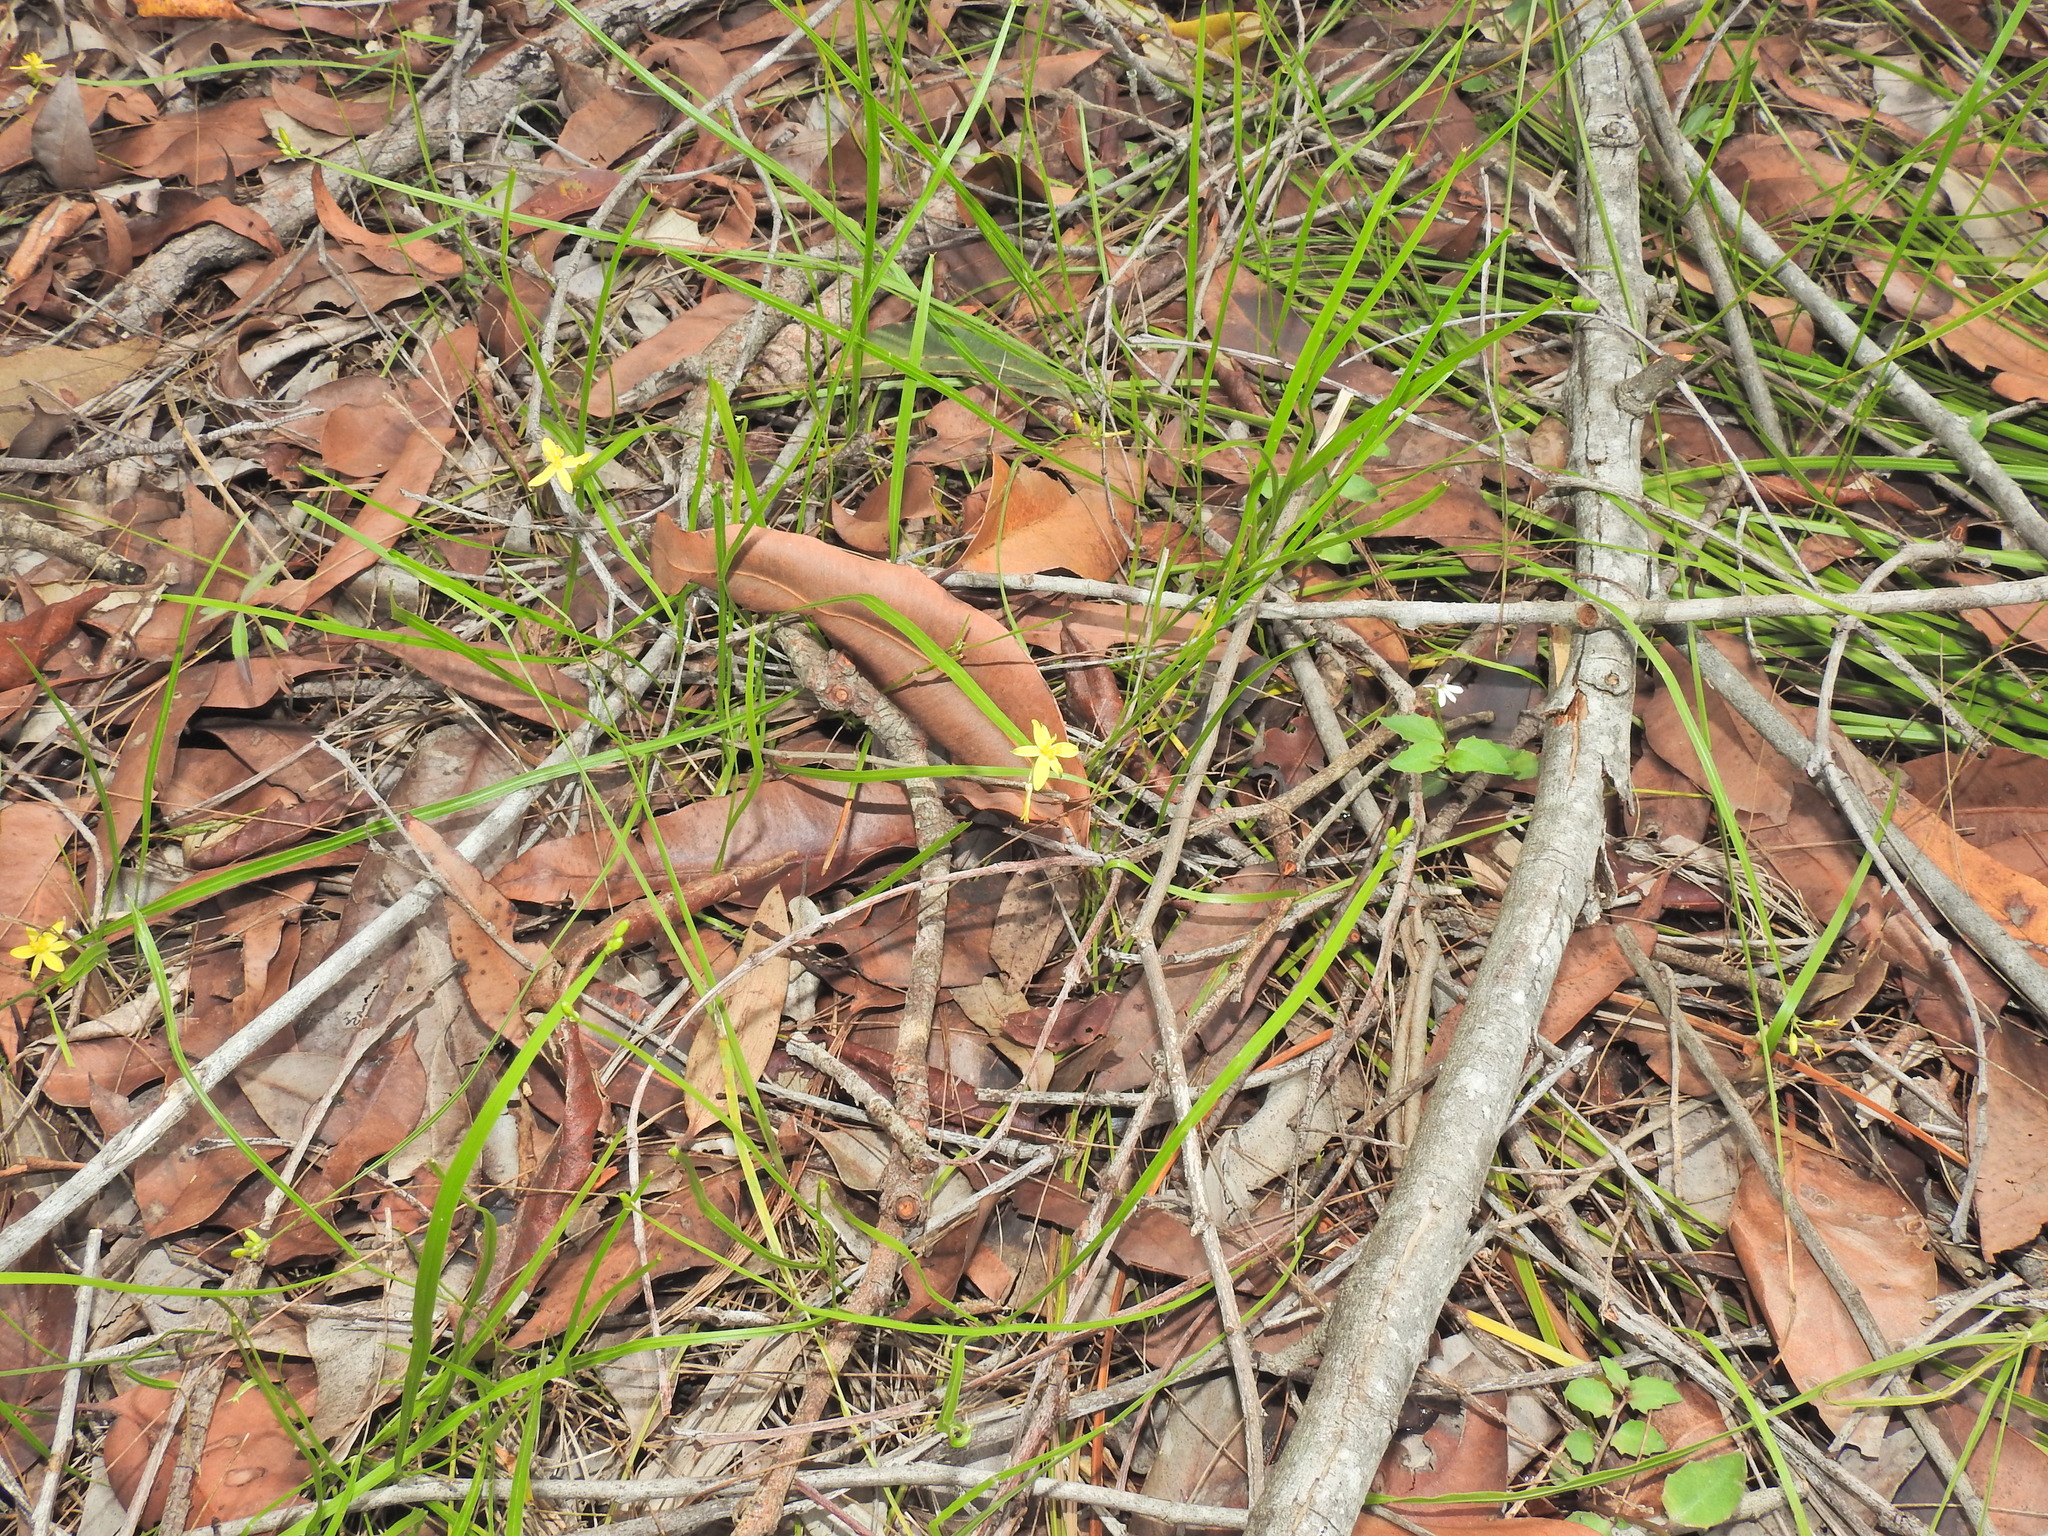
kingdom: Plantae
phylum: Tracheophyta
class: Liliopsida
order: Asparagales
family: Asphodelaceae
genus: Tricoryne
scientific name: Tricoryne anceps
